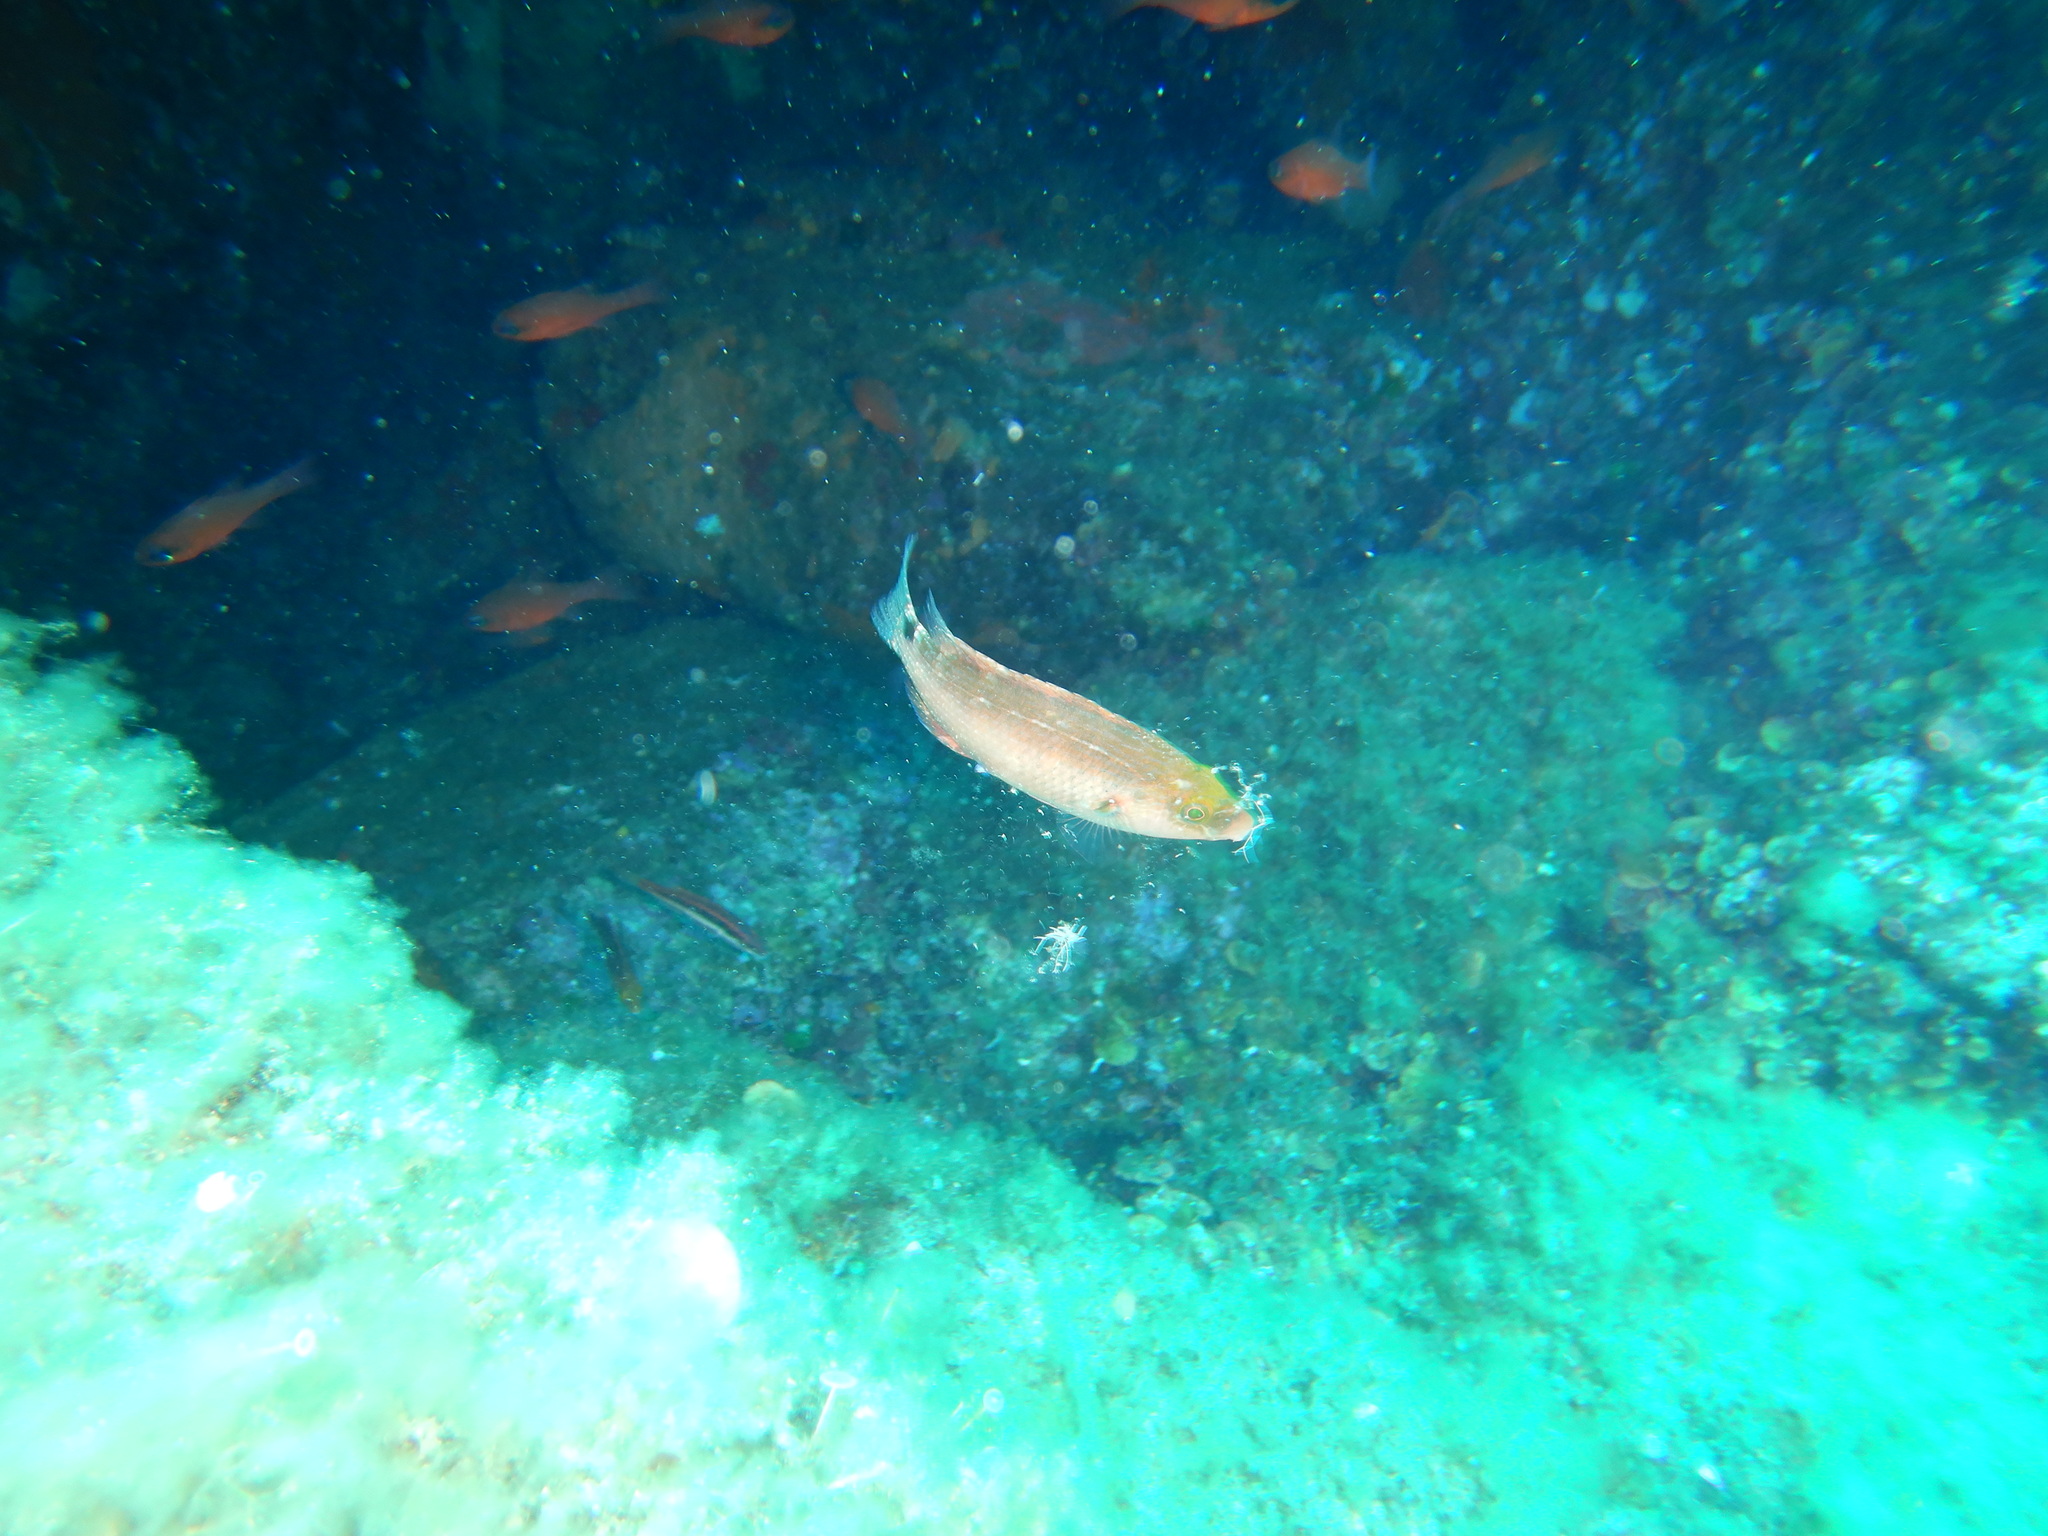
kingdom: Animalia
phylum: Chordata
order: Perciformes
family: Labridae
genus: Symphodus
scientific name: Symphodus mediterraneus
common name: Axillary wrasse
